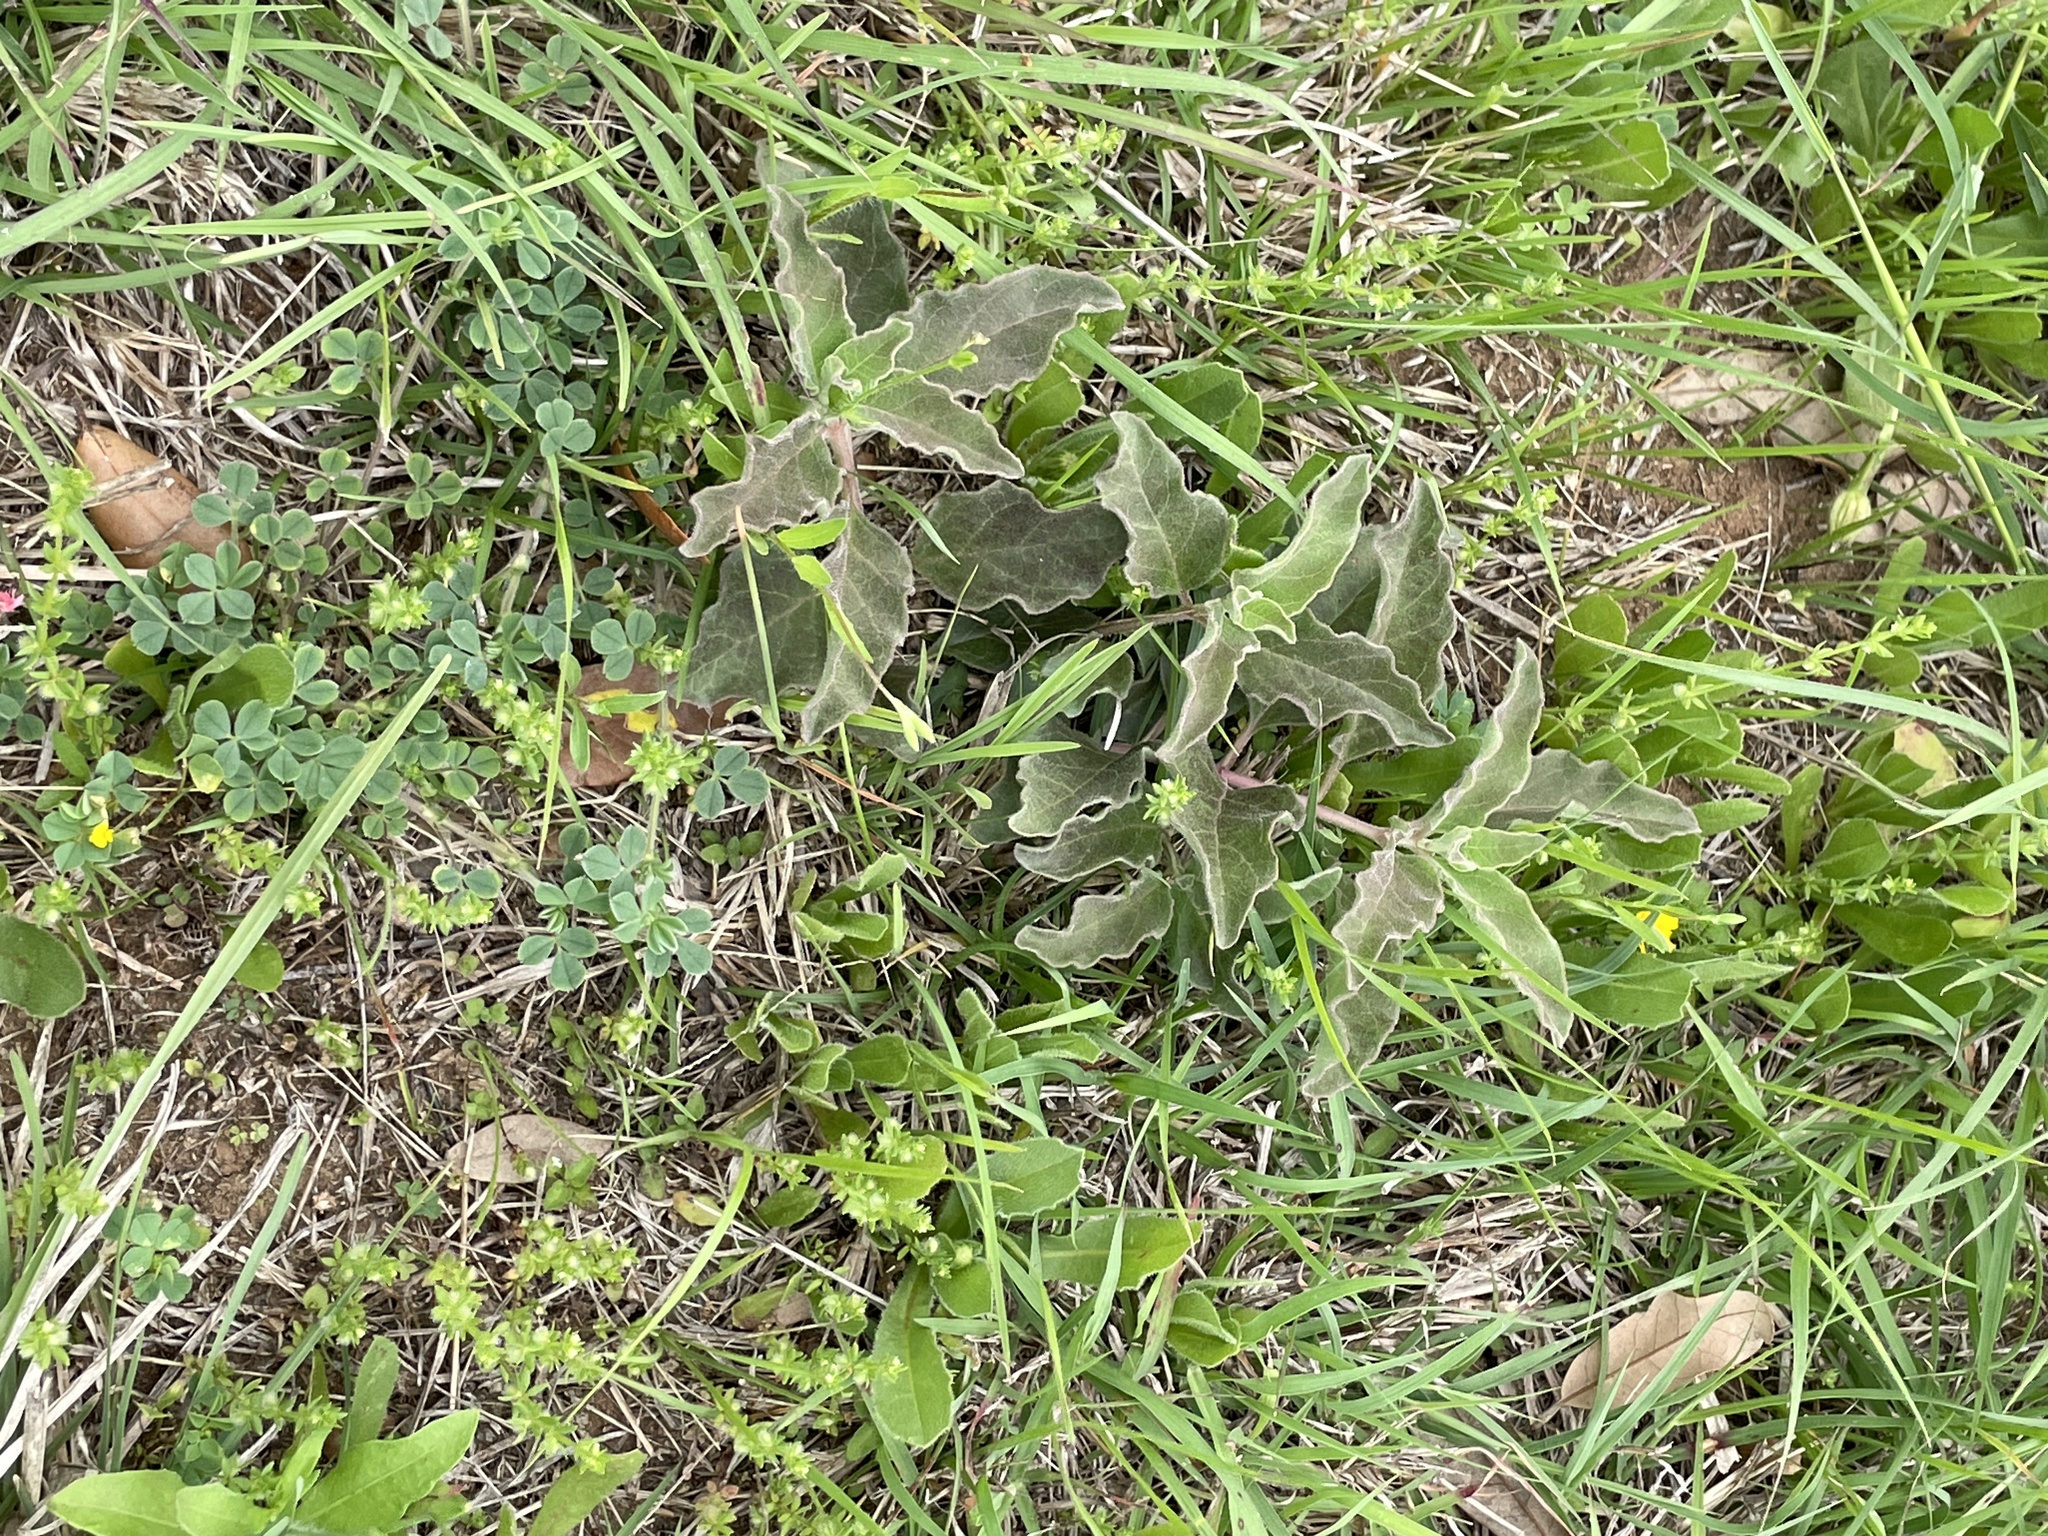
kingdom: Plantae
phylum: Tracheophyta
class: Magnoliopsida
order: Gentianales
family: Apocynaceae
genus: Asclepias
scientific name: Asclepias oenotheroides
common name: Zizotes milkweed
